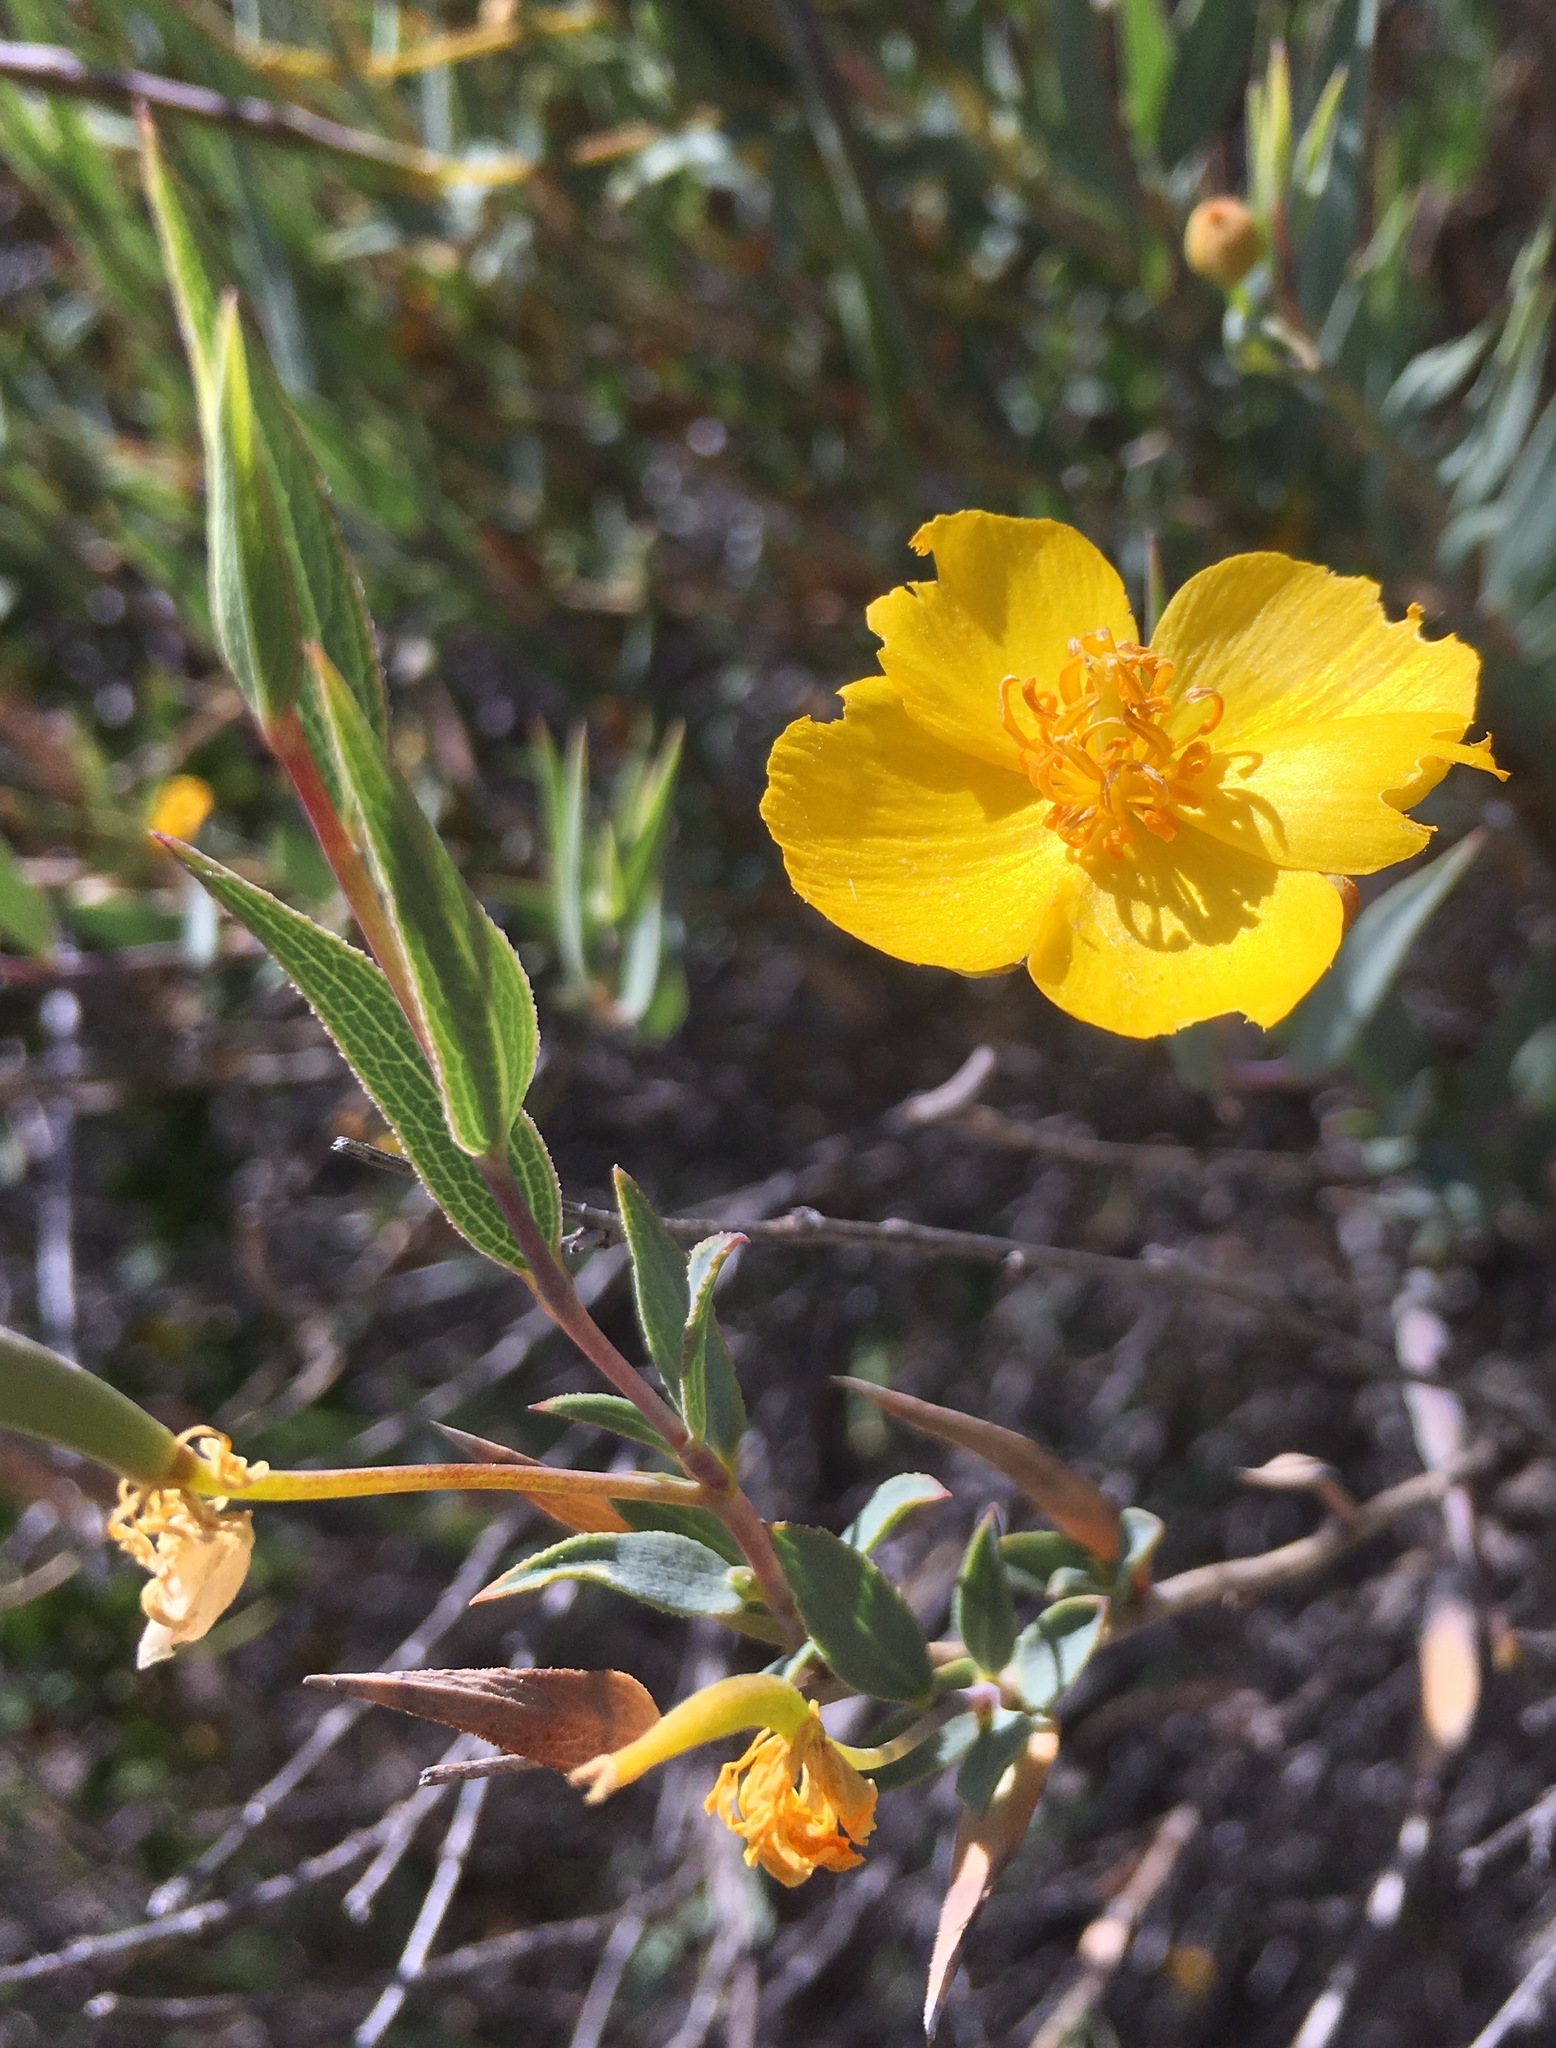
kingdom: Plantae
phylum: Tracheophyta
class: Magnoliopsida
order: Ranunculales
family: Papaveraceae
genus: Dendromecon
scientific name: Dendromecon rigida
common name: Tree poppy
